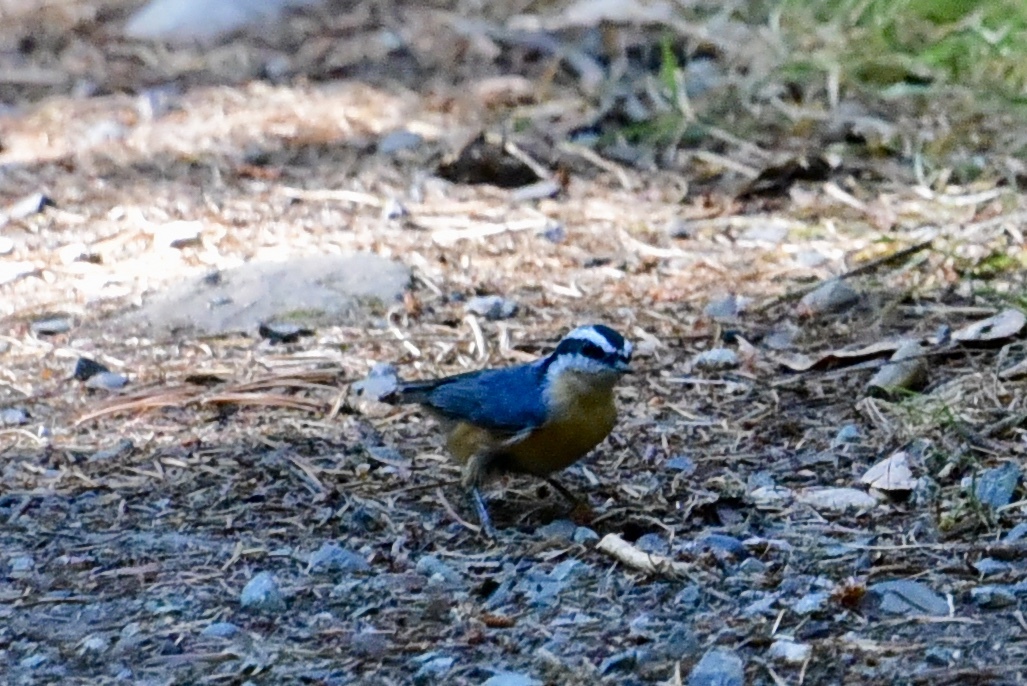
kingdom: Animalia
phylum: Chordata
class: Aves
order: Passeriformes
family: Sittidae
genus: Sitta
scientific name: Sitta canadensis
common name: Red-breasted nuthatch
